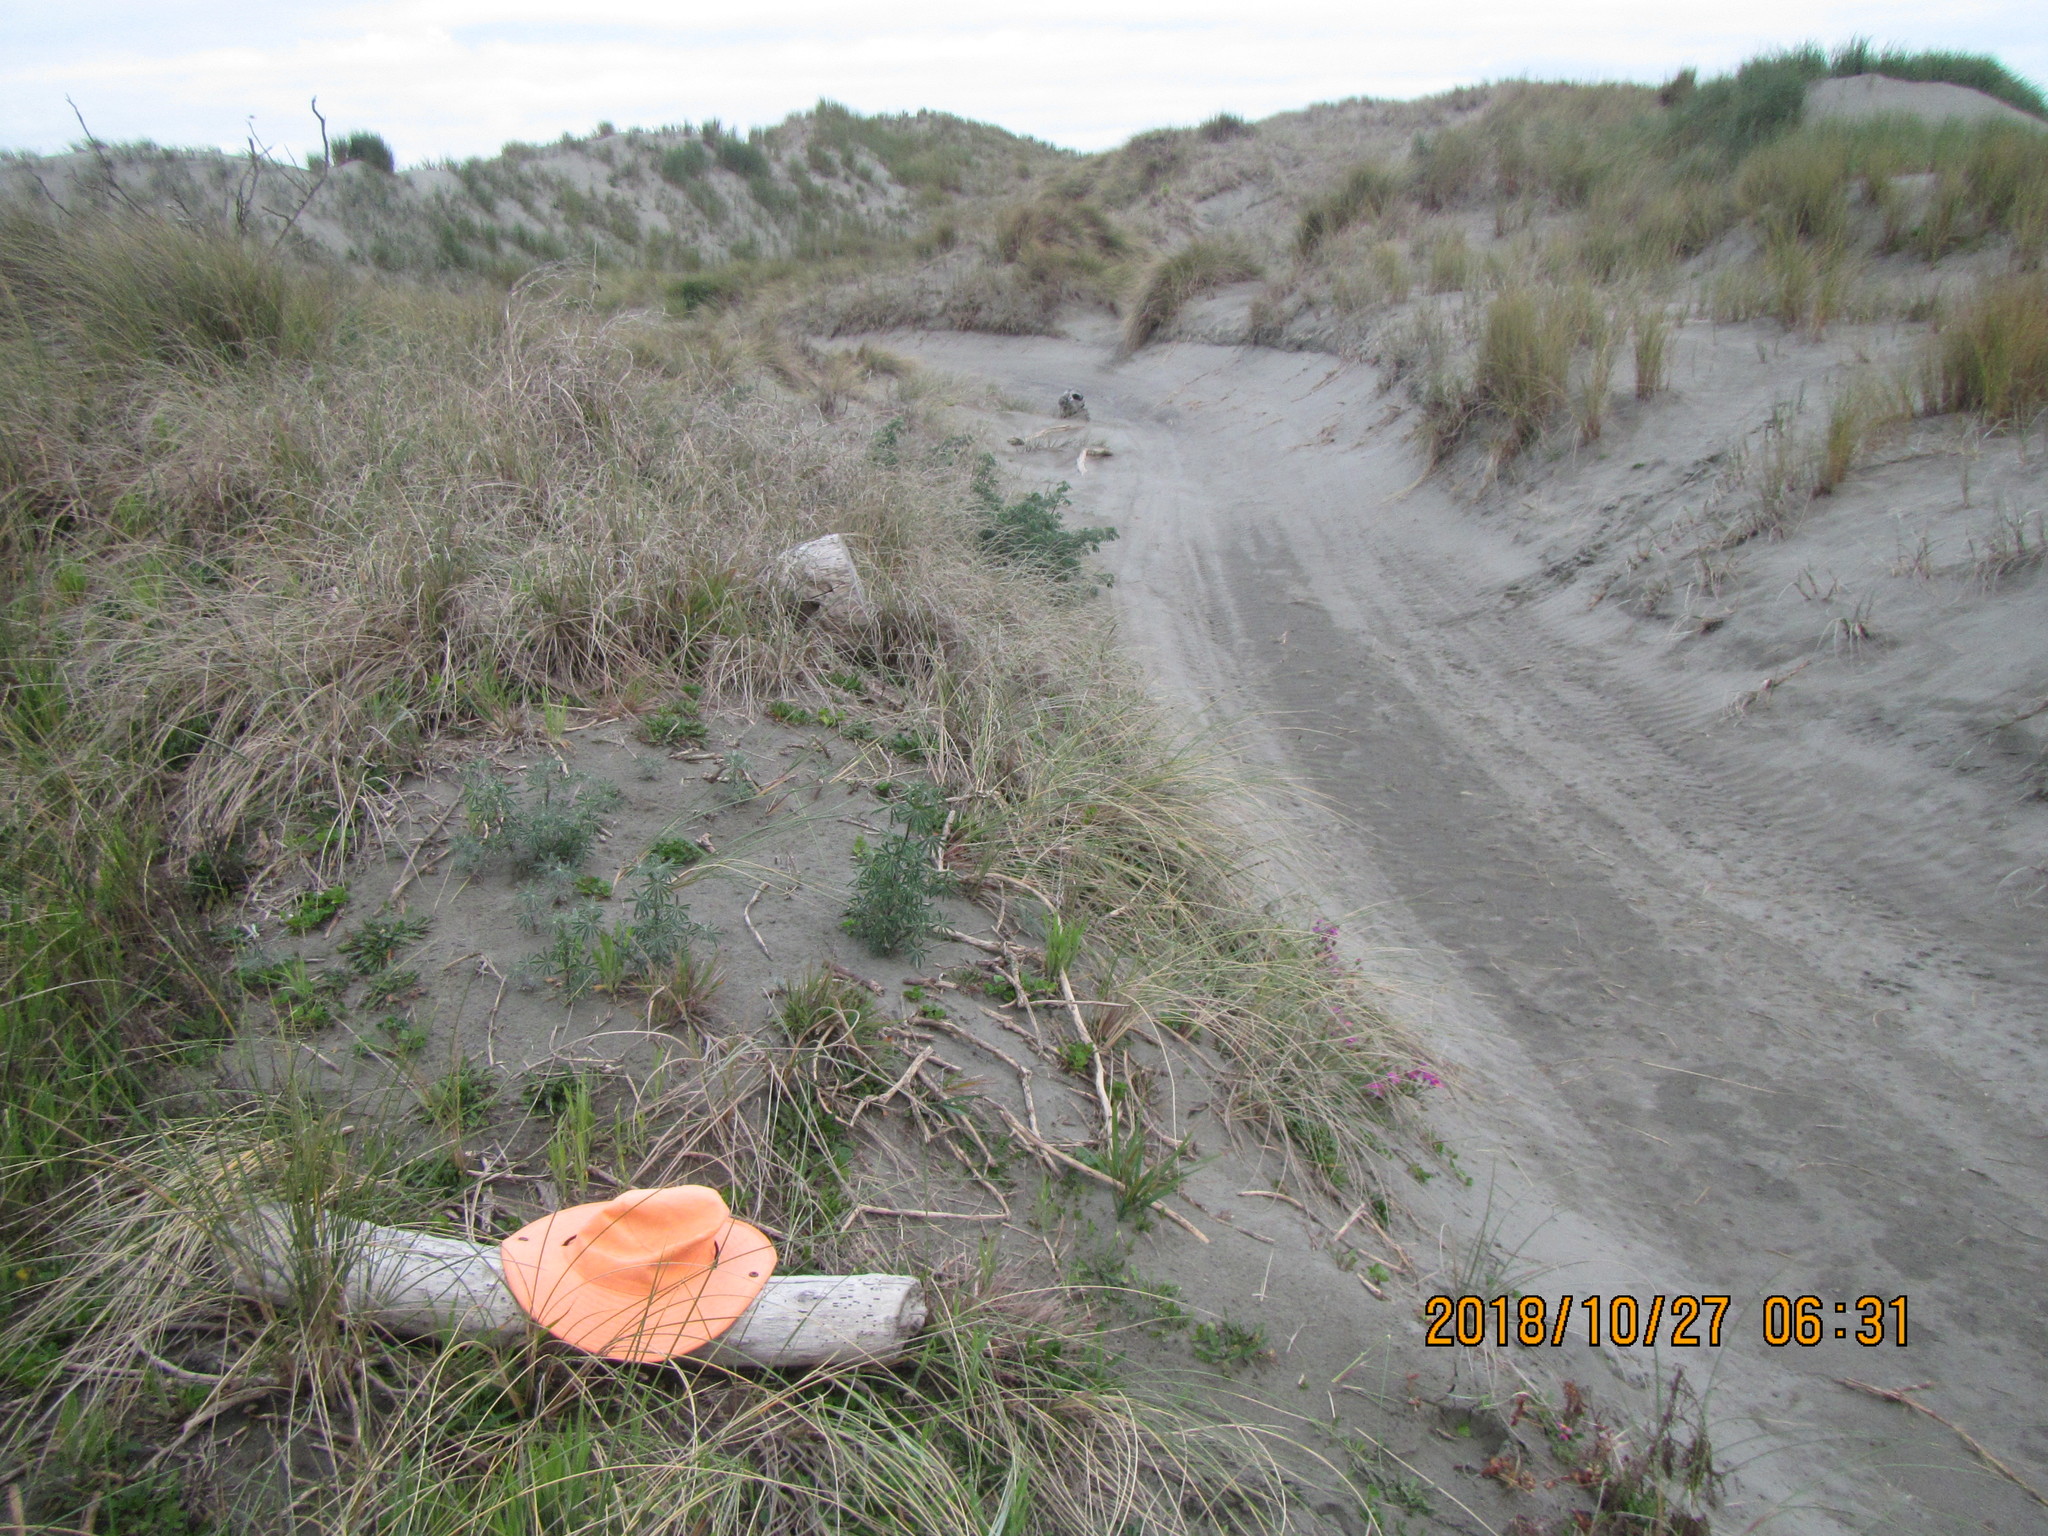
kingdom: Animalia
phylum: Mollusca
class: Gastropoda
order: Stylommatophora
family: Helicidae
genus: Cornu
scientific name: Cornu aspersum
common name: Brown garden snail
